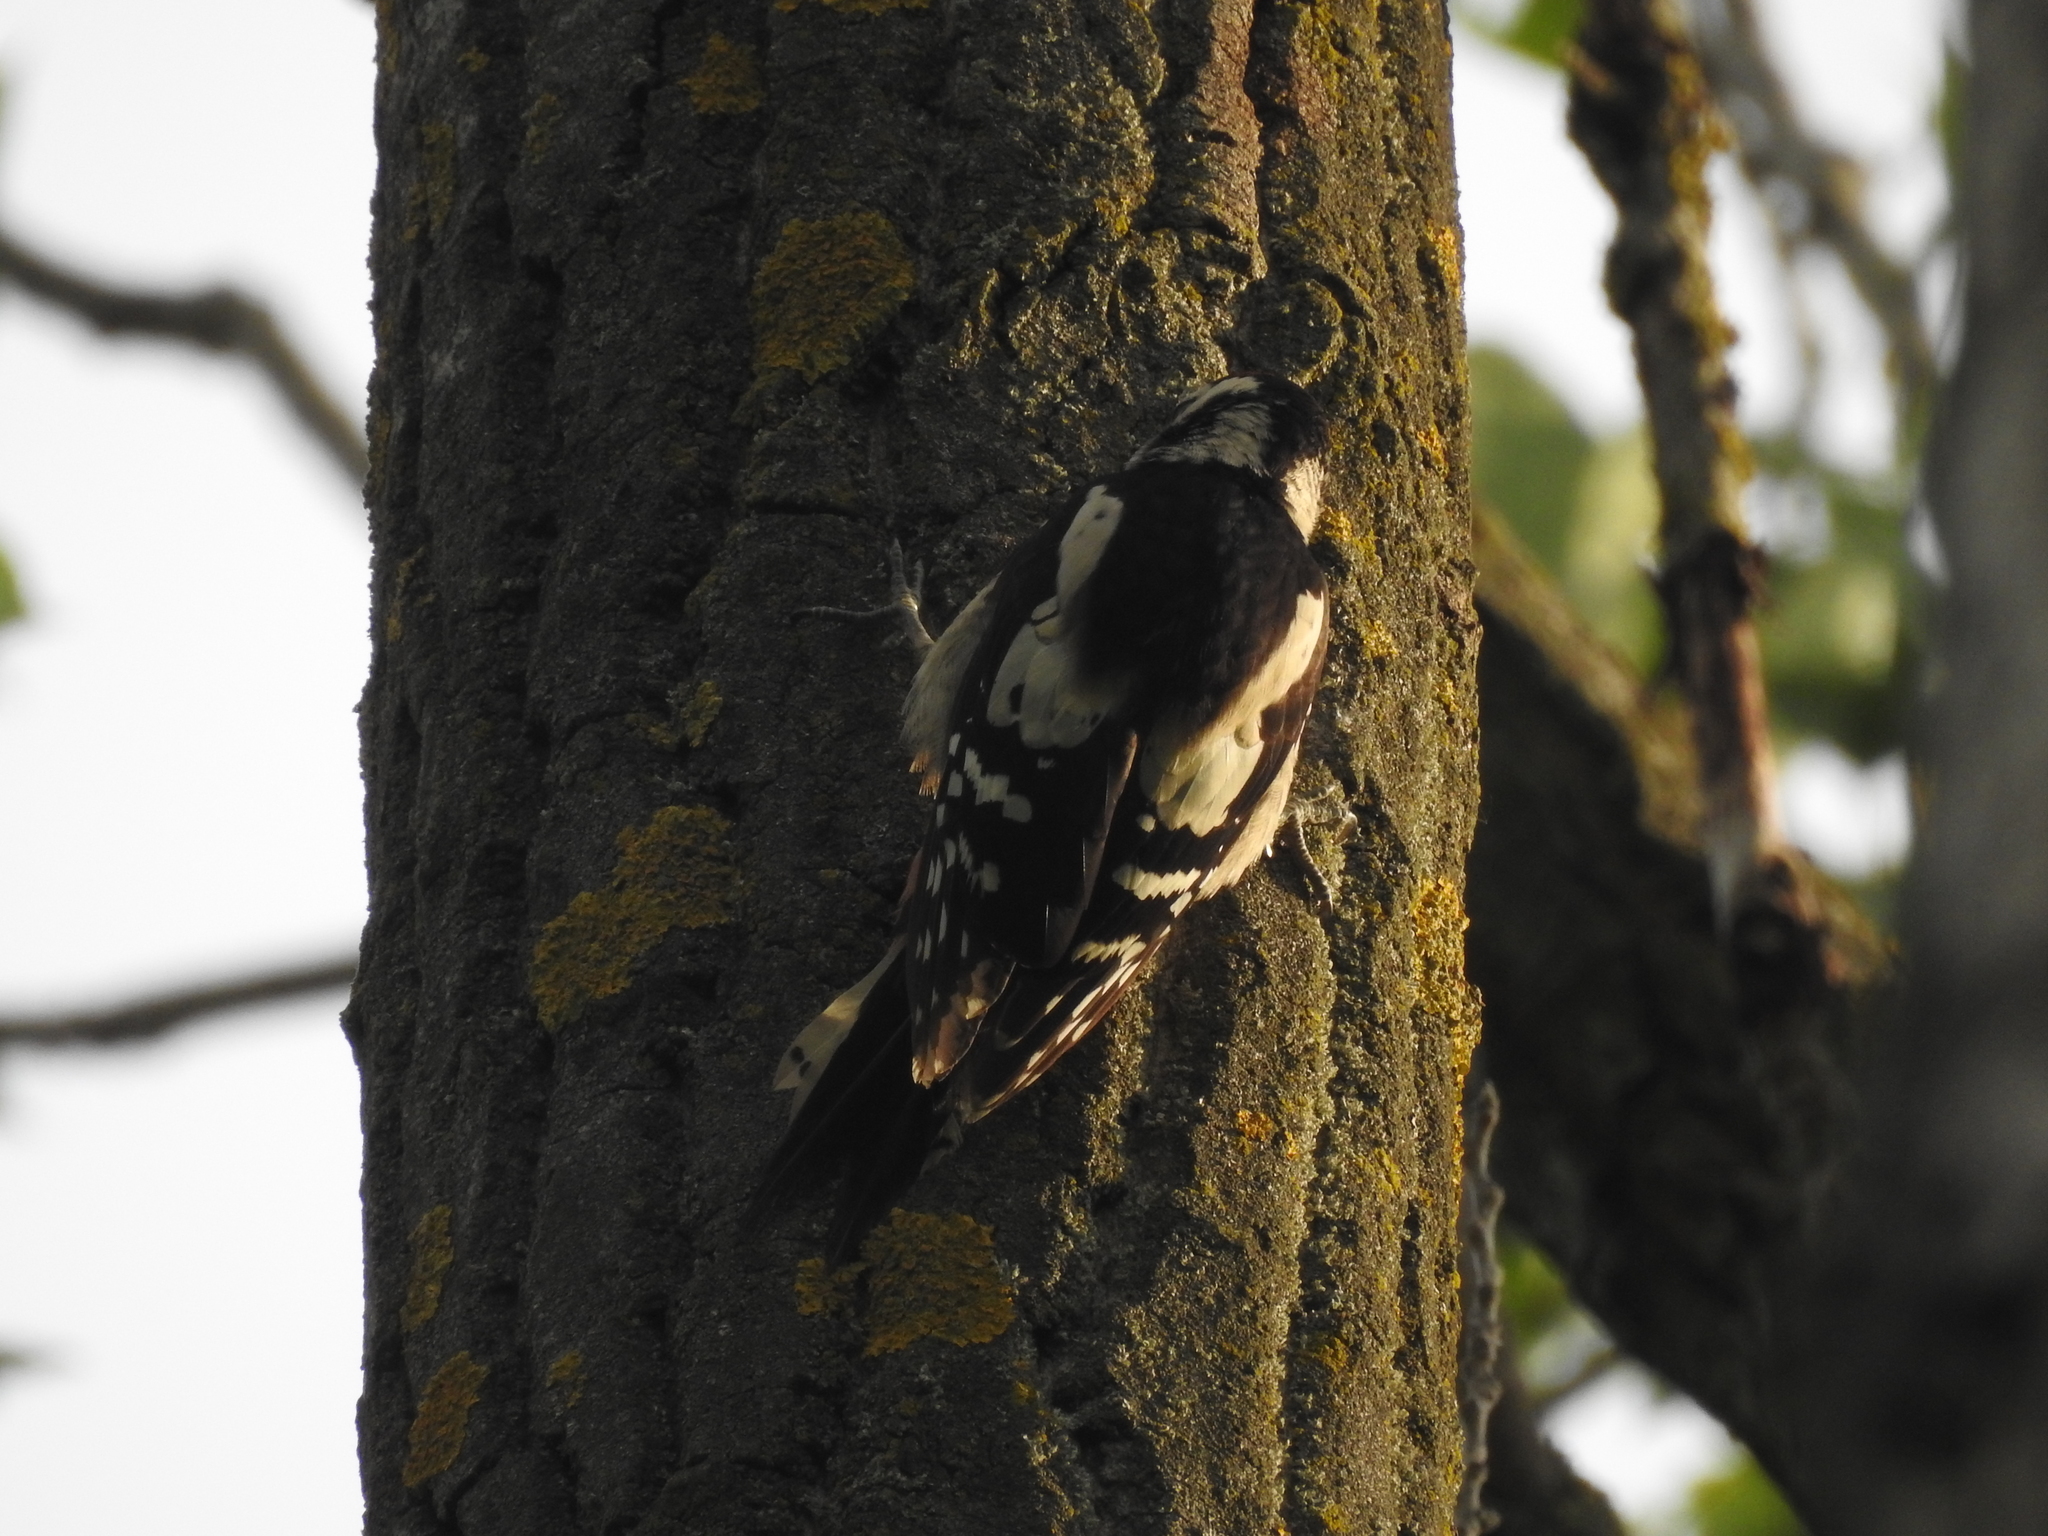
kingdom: Animalia
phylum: Chordata
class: Aves
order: Piciformes
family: Picidae
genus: Dendrocopos
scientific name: Dendrocopos major
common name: Great spotted woodpecker
